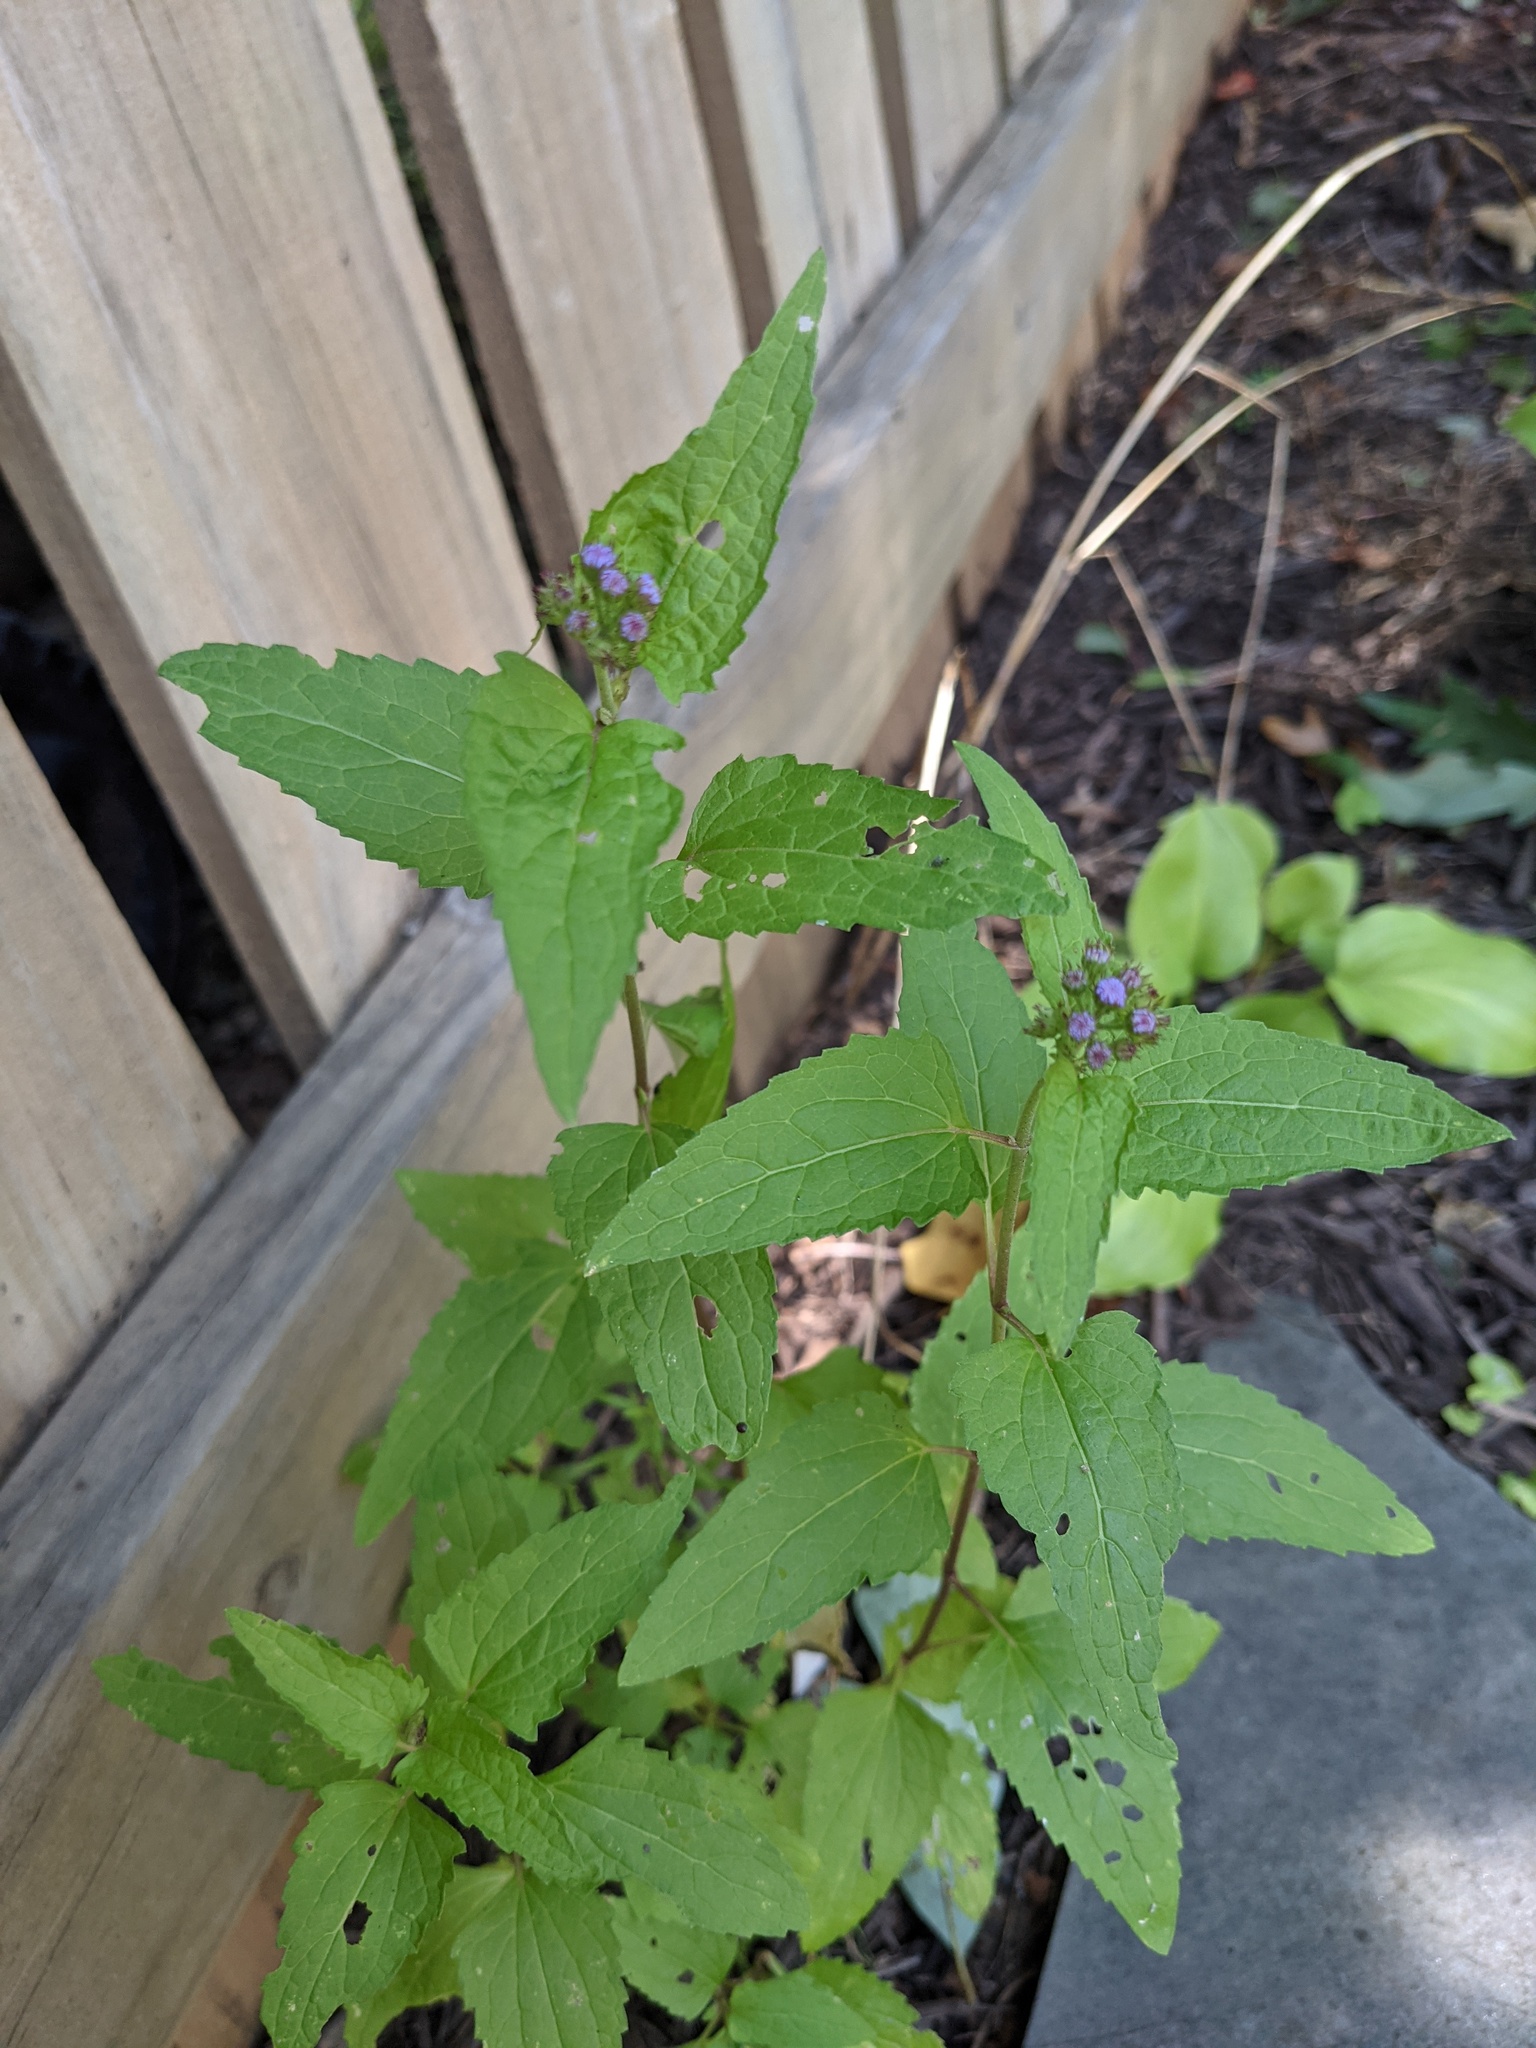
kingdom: Plantae
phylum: Tracheophyta
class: Magnoliopsida
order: Asterales
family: Asteraceae
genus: Conoclinium
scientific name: Conoclinium coelestinum
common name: Blue mistflower
